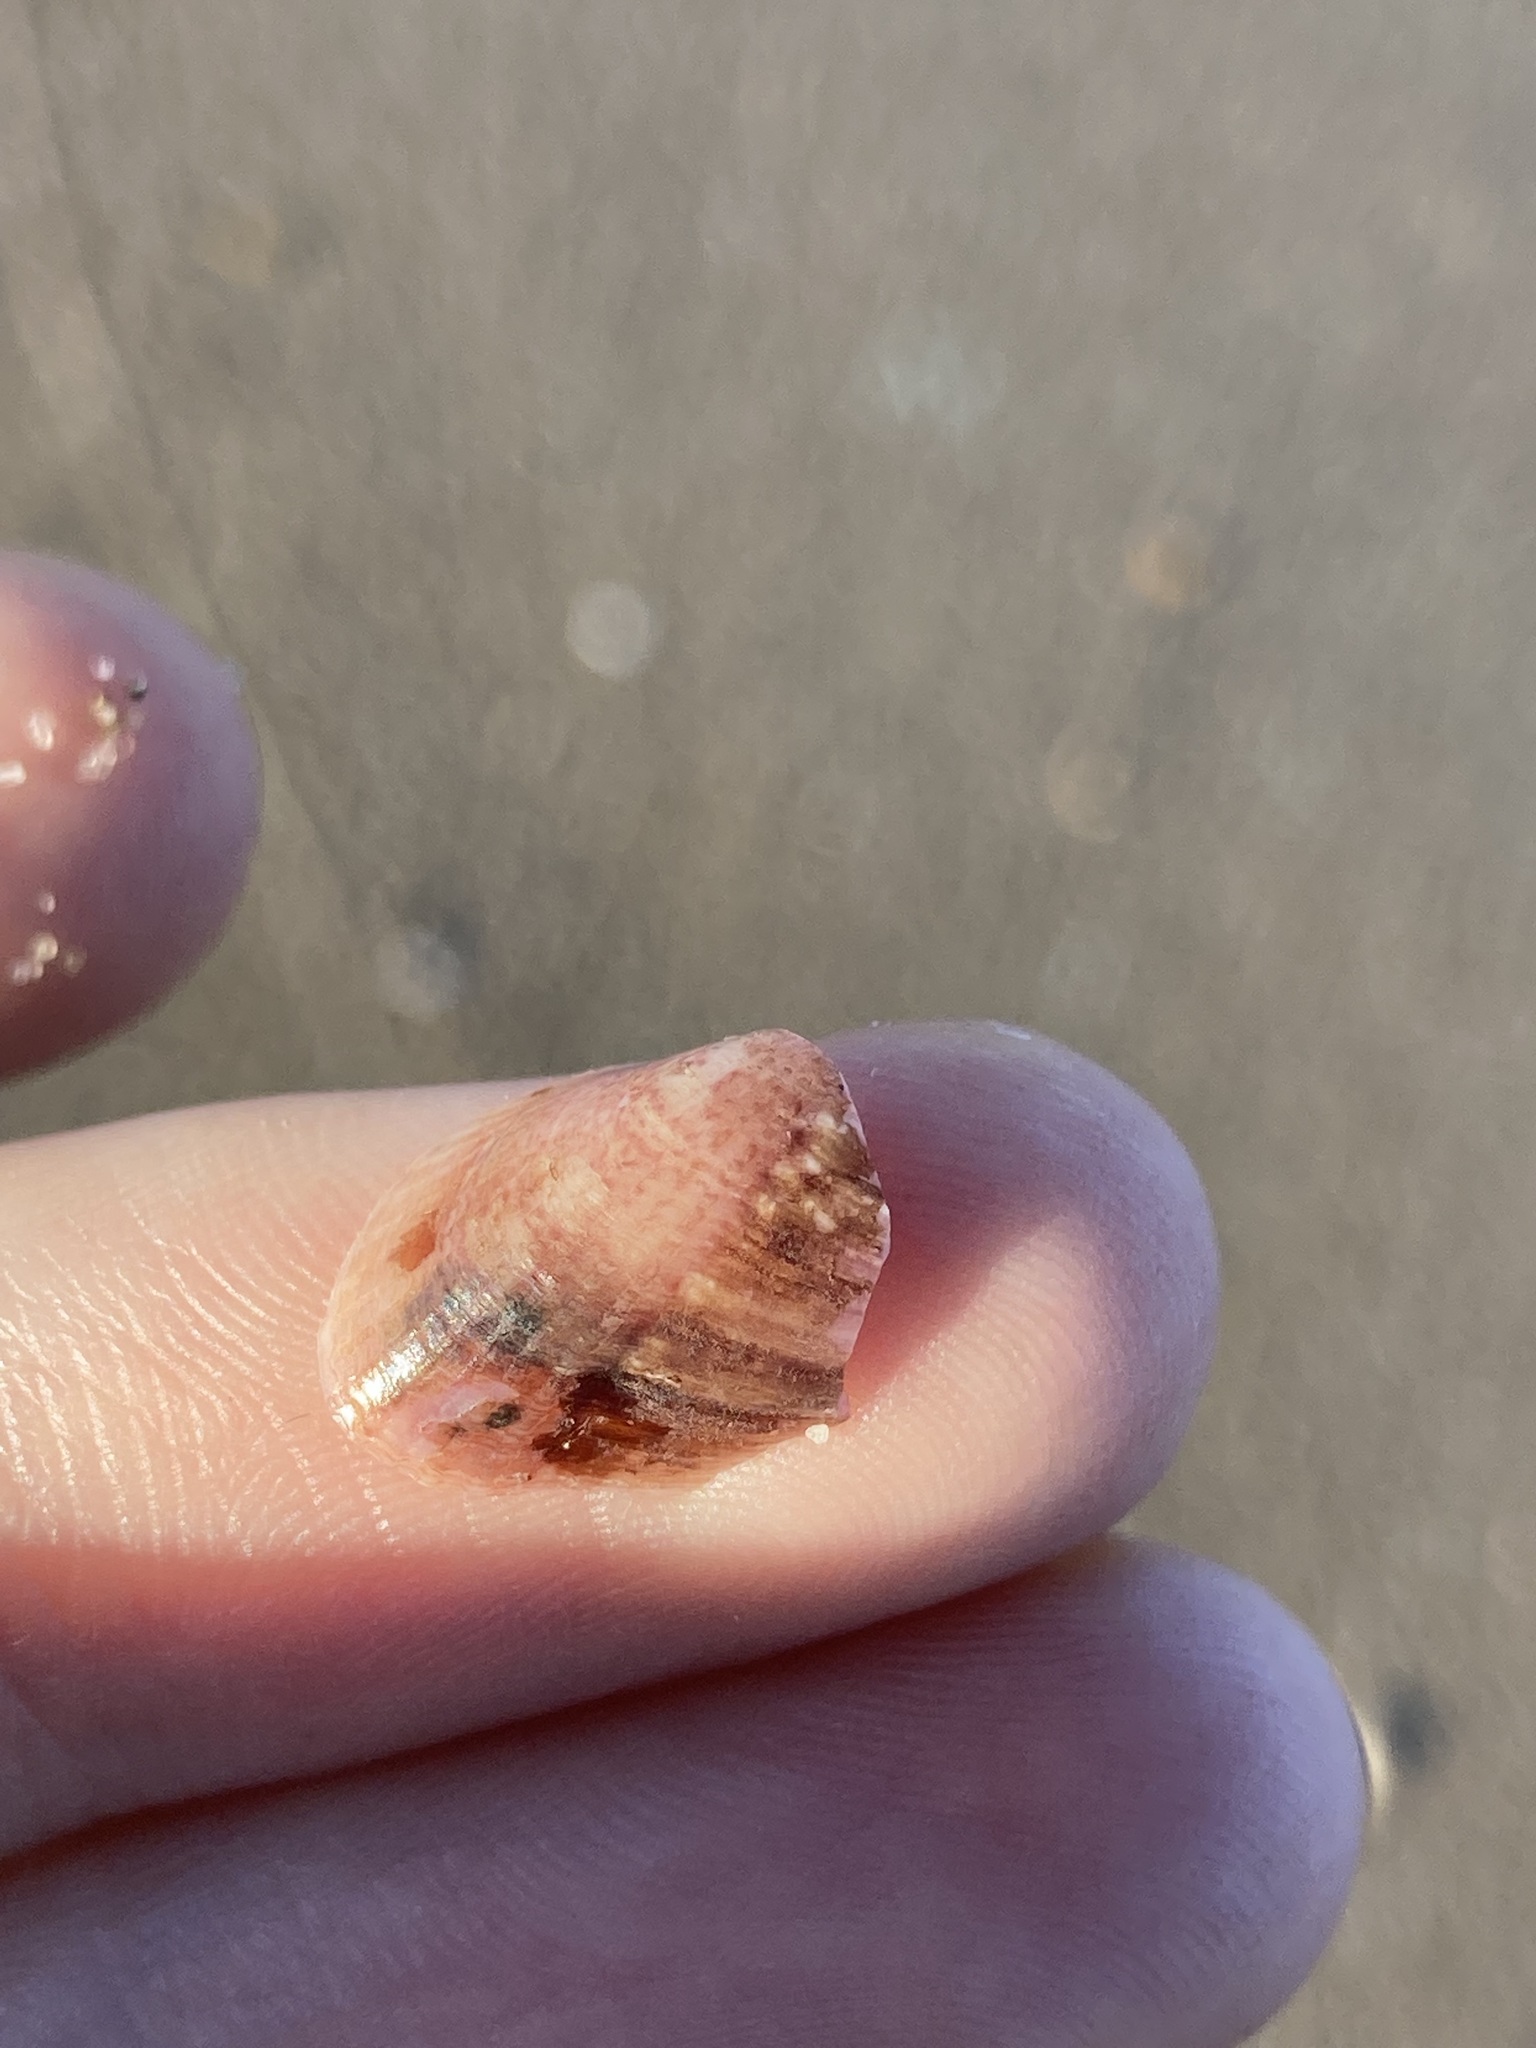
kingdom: Animalia
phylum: Mollusca
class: Bivalvia
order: Mytilida
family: Mytilidae
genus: Musculus
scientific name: Musculus impactus
